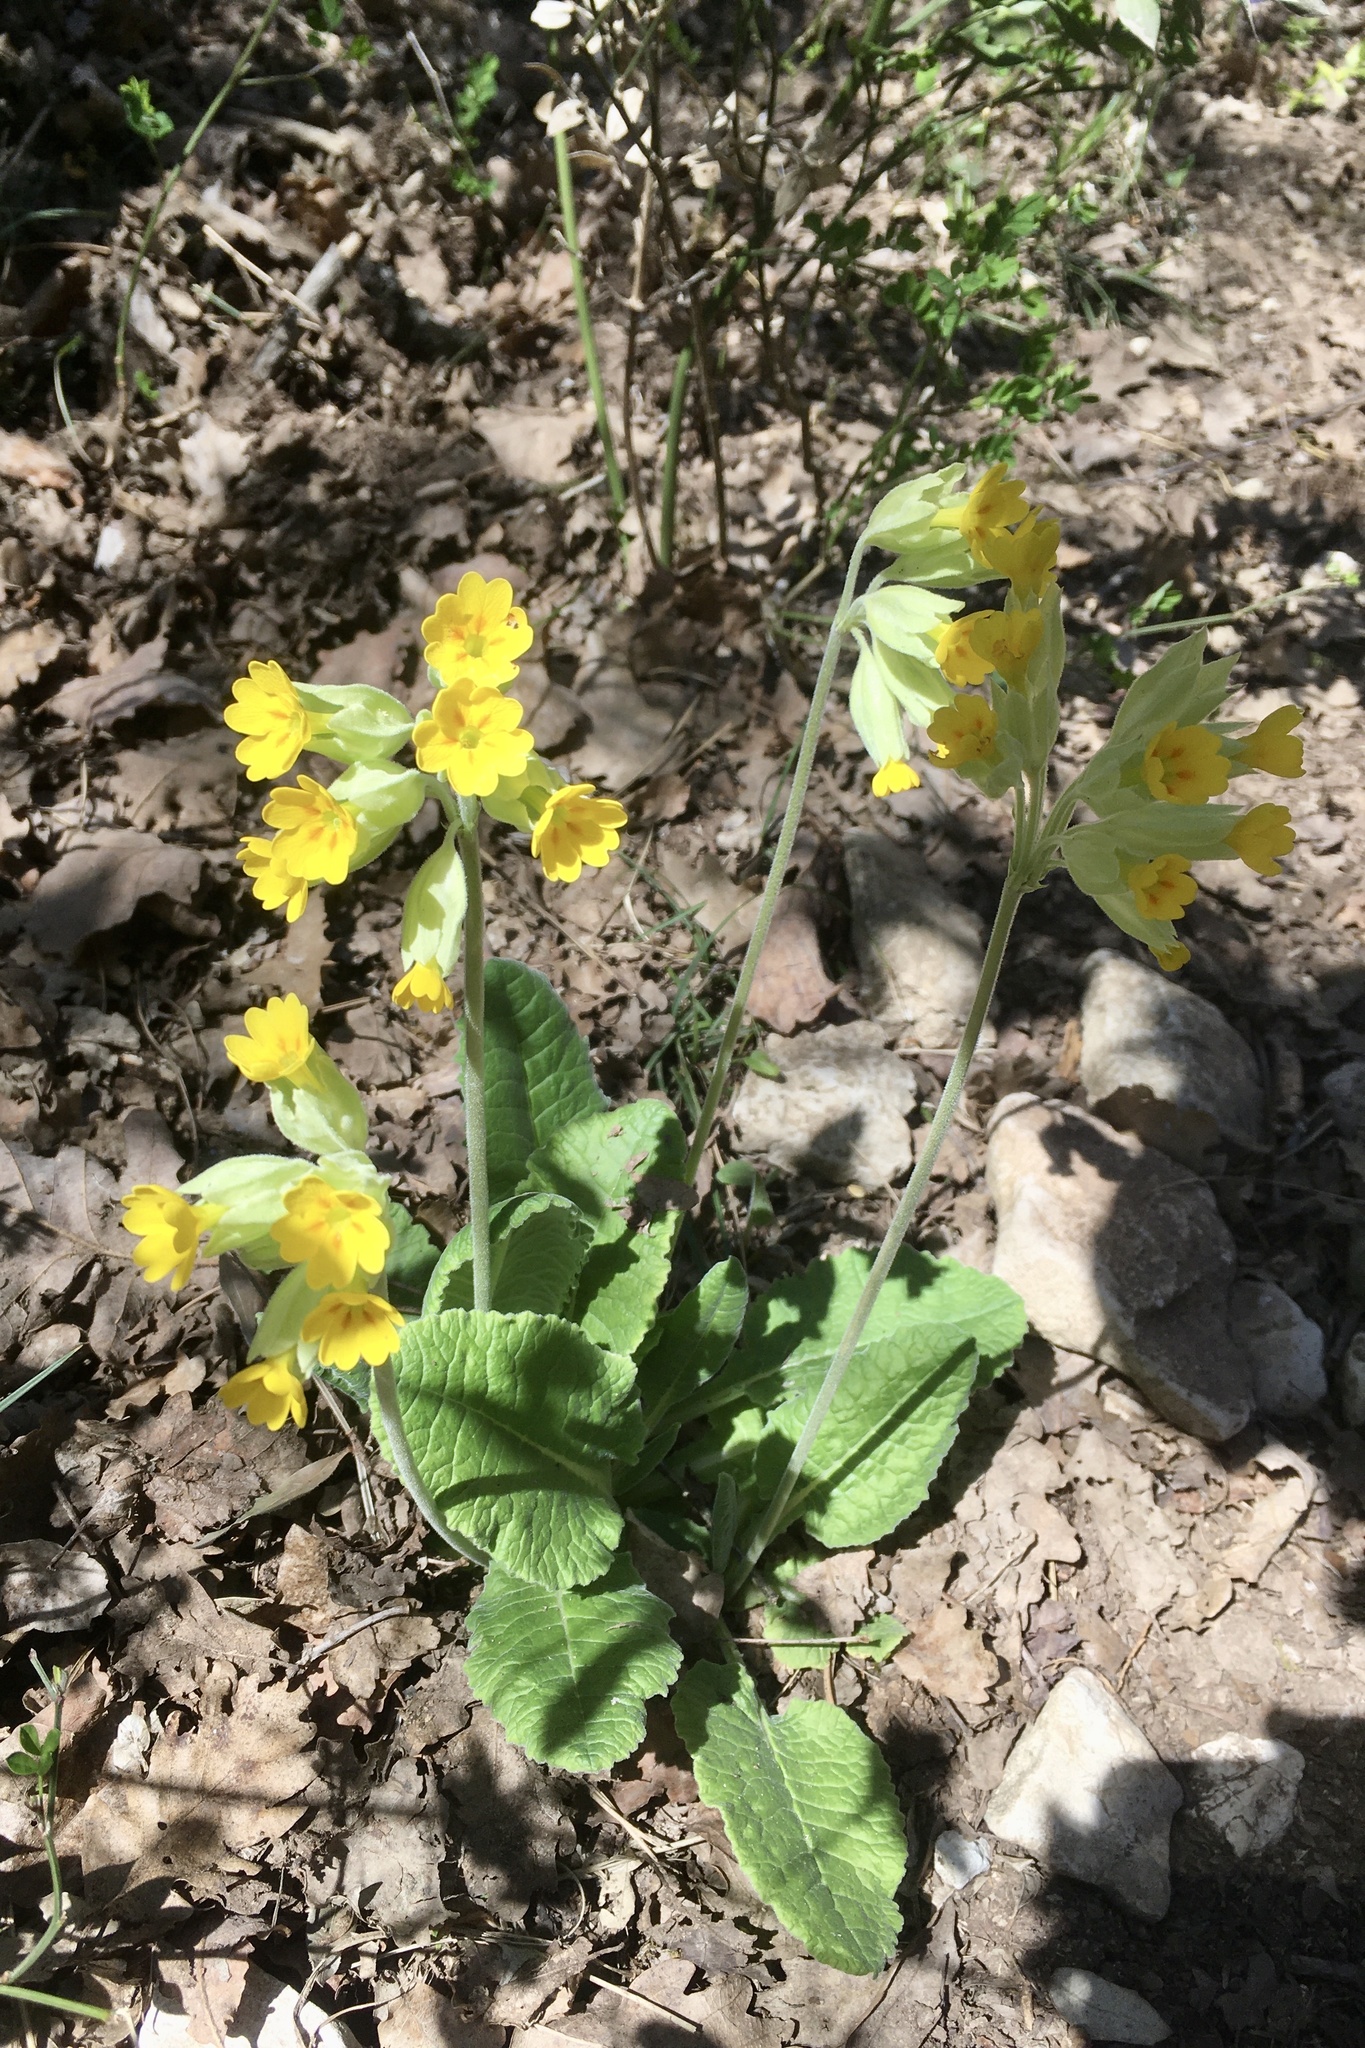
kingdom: Plantae
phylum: Tracheophyta
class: Magnoliopsida
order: Ericales
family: Primulaceae
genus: Primula
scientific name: Primula veris
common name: Cowslip
